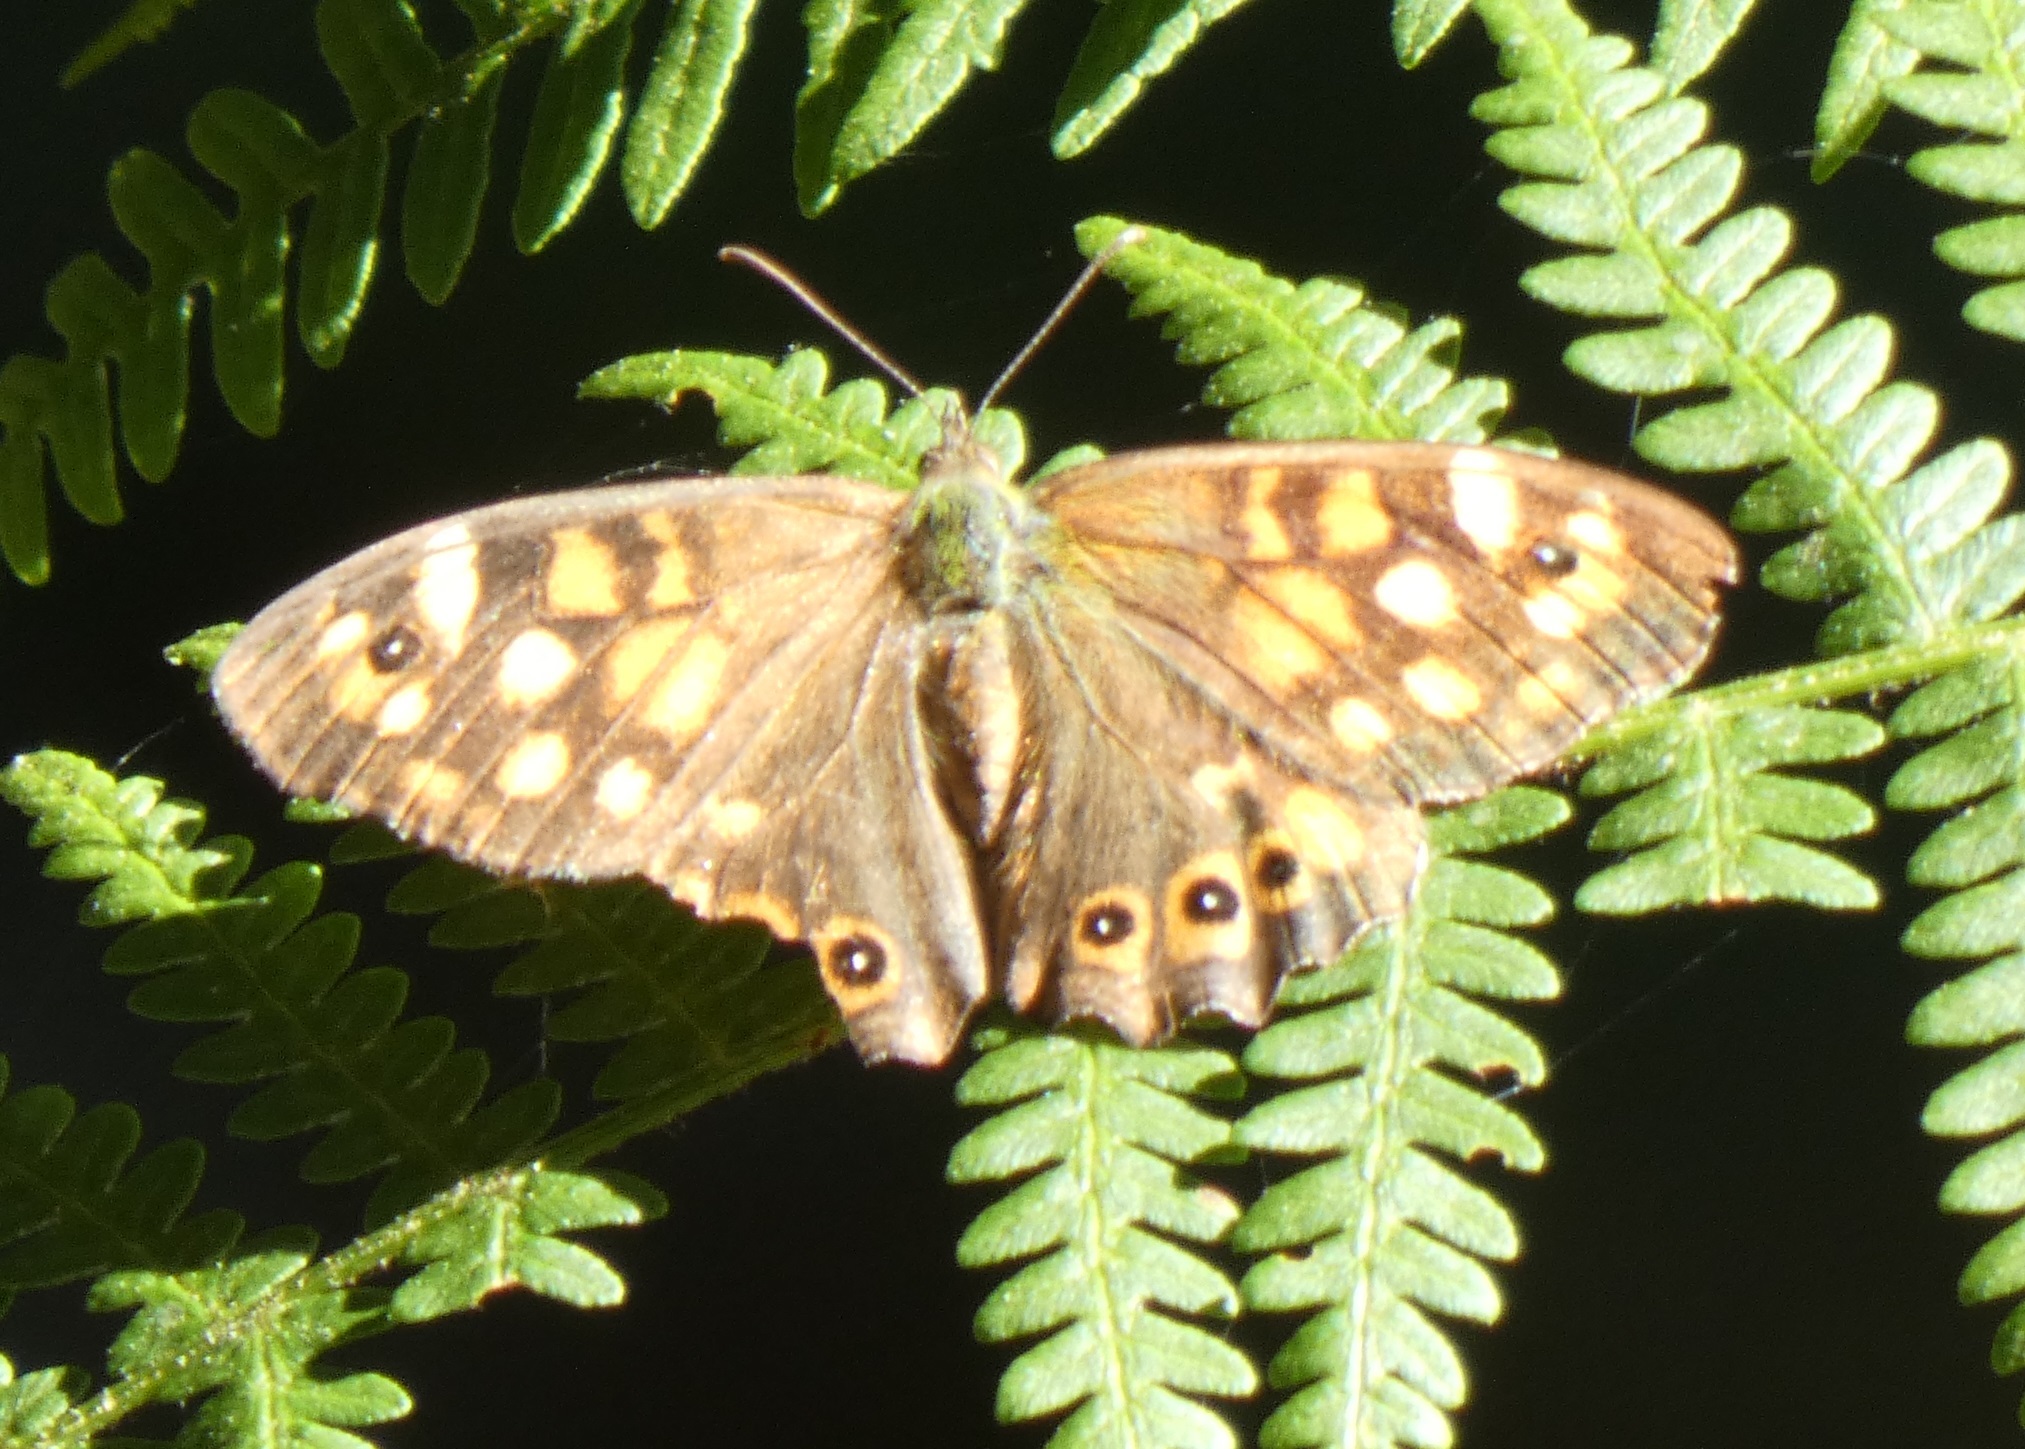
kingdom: Animalia
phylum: Arthropoda
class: Insecta
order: Lepidoptera
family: Nymphalidae
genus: Pararge
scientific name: Pararge aegeria
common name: Speckled wood
